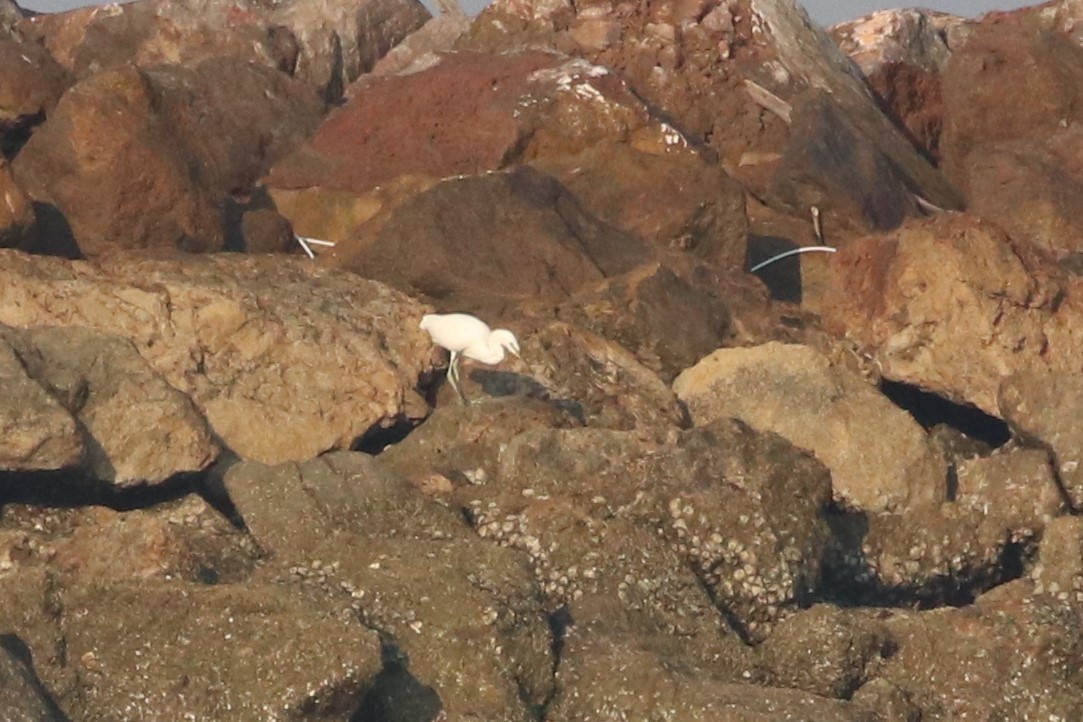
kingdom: Animalia
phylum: Chordata
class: Aves
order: Pelecaniformes
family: Ardeidae
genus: Egretta
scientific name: Egretta sacra
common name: Pacific reef heron
